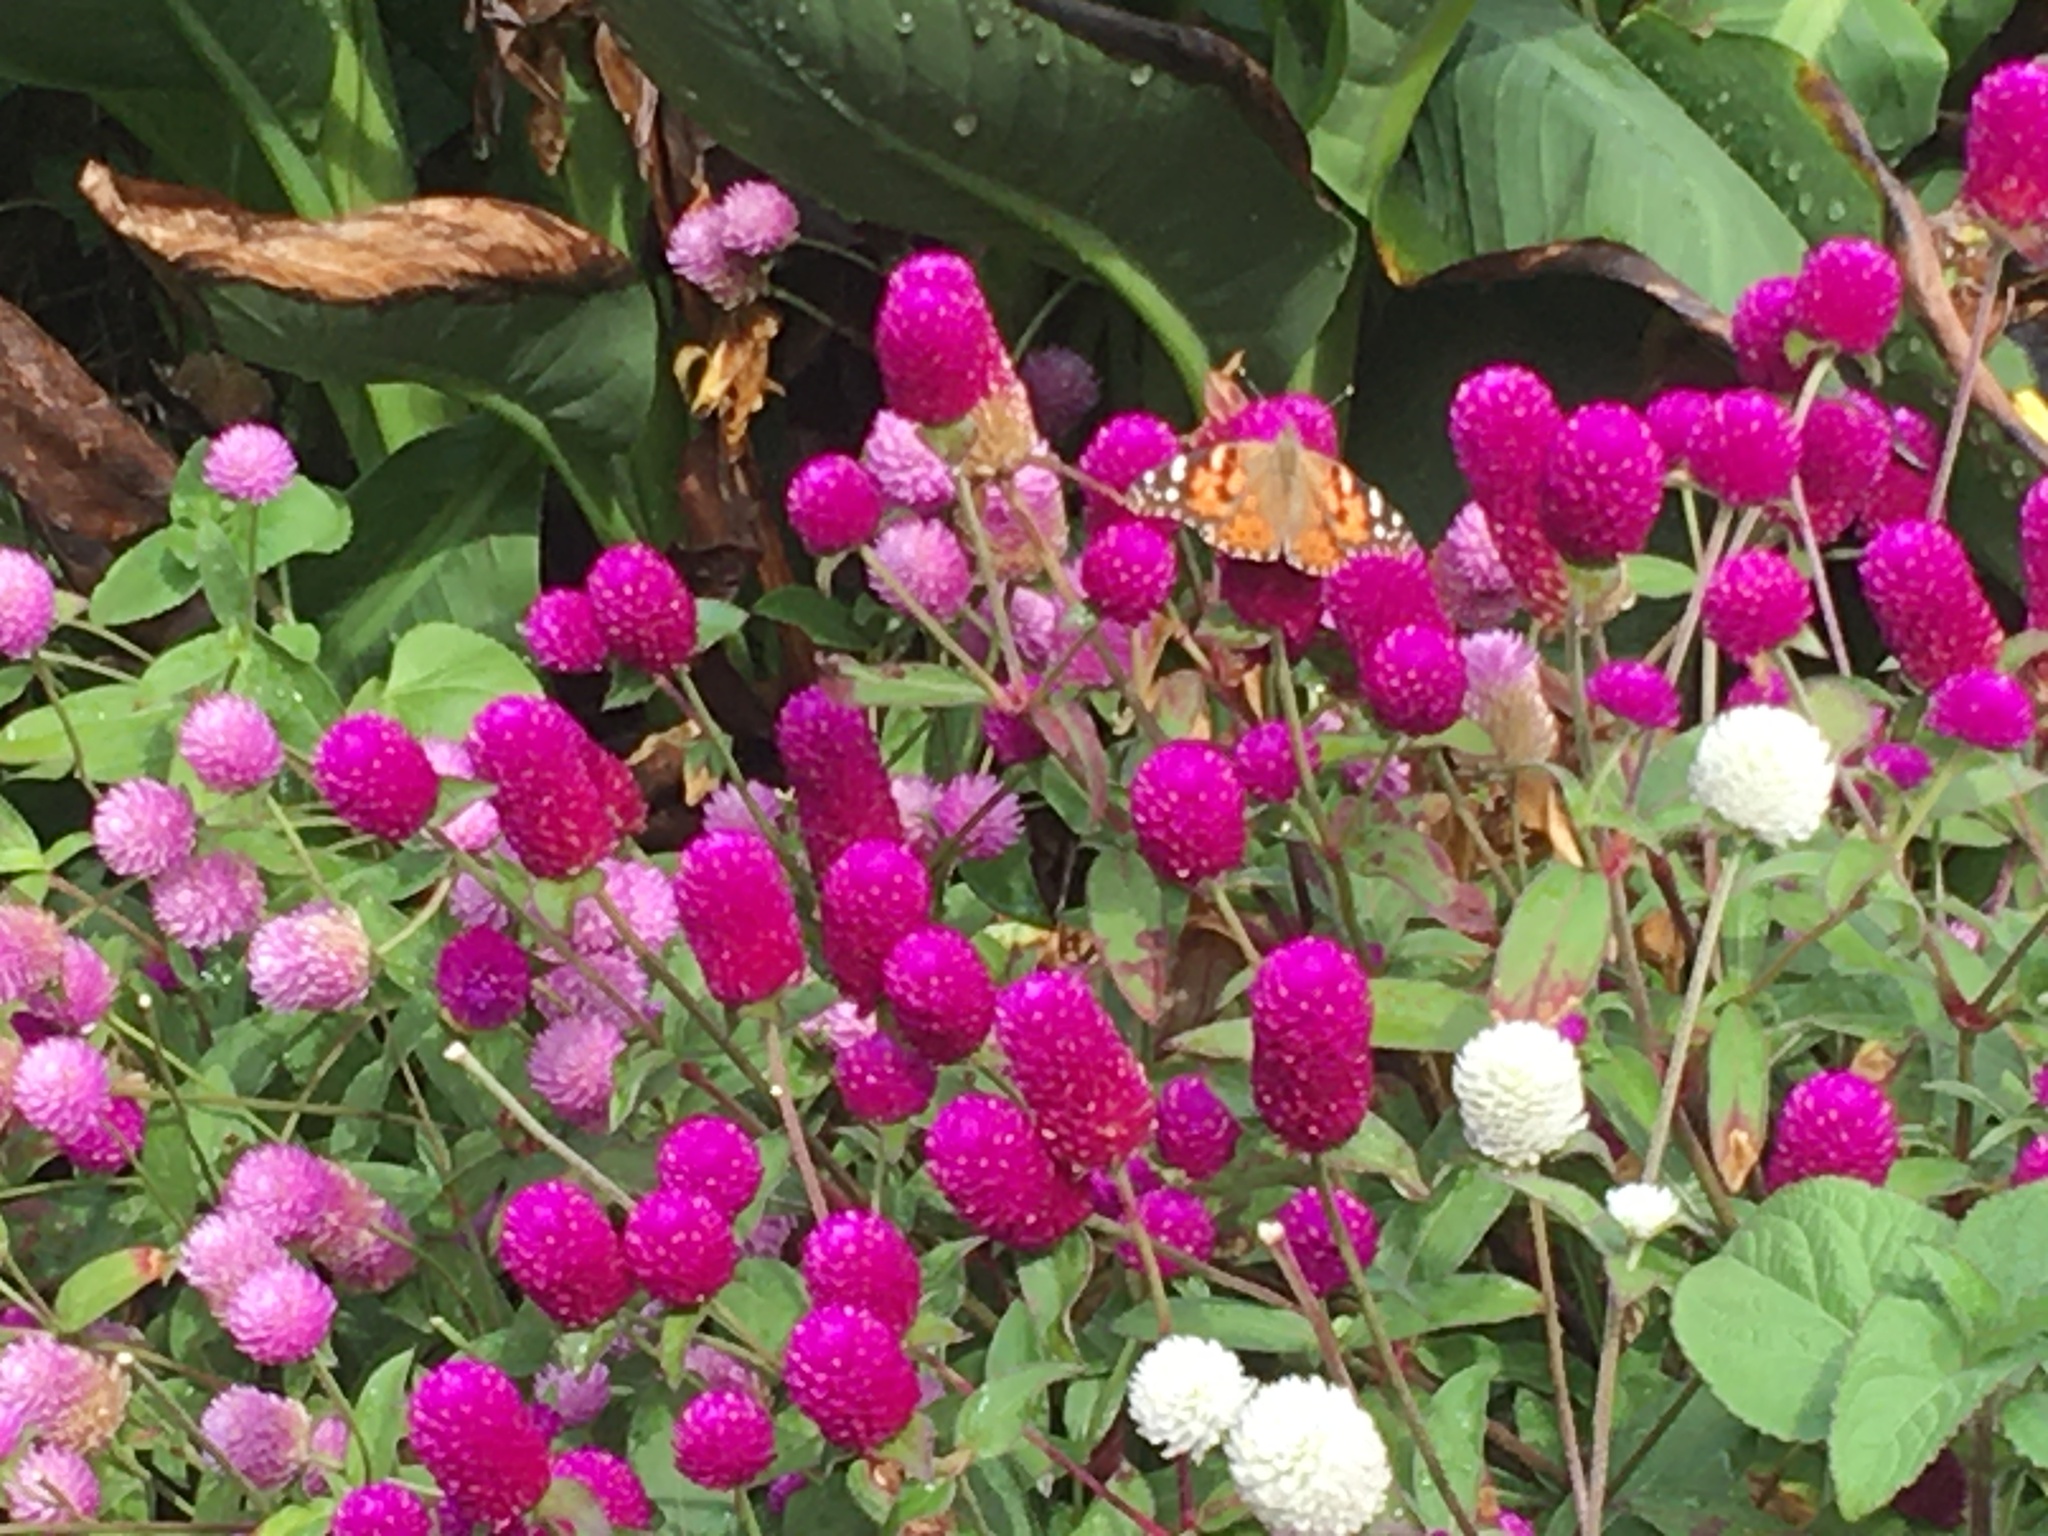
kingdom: Animalia
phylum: Arthropoda
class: Insecta
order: Lepidoptera
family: Nymphalidae
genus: Vanessa
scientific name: Vanessa cardui
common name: Painted lady
